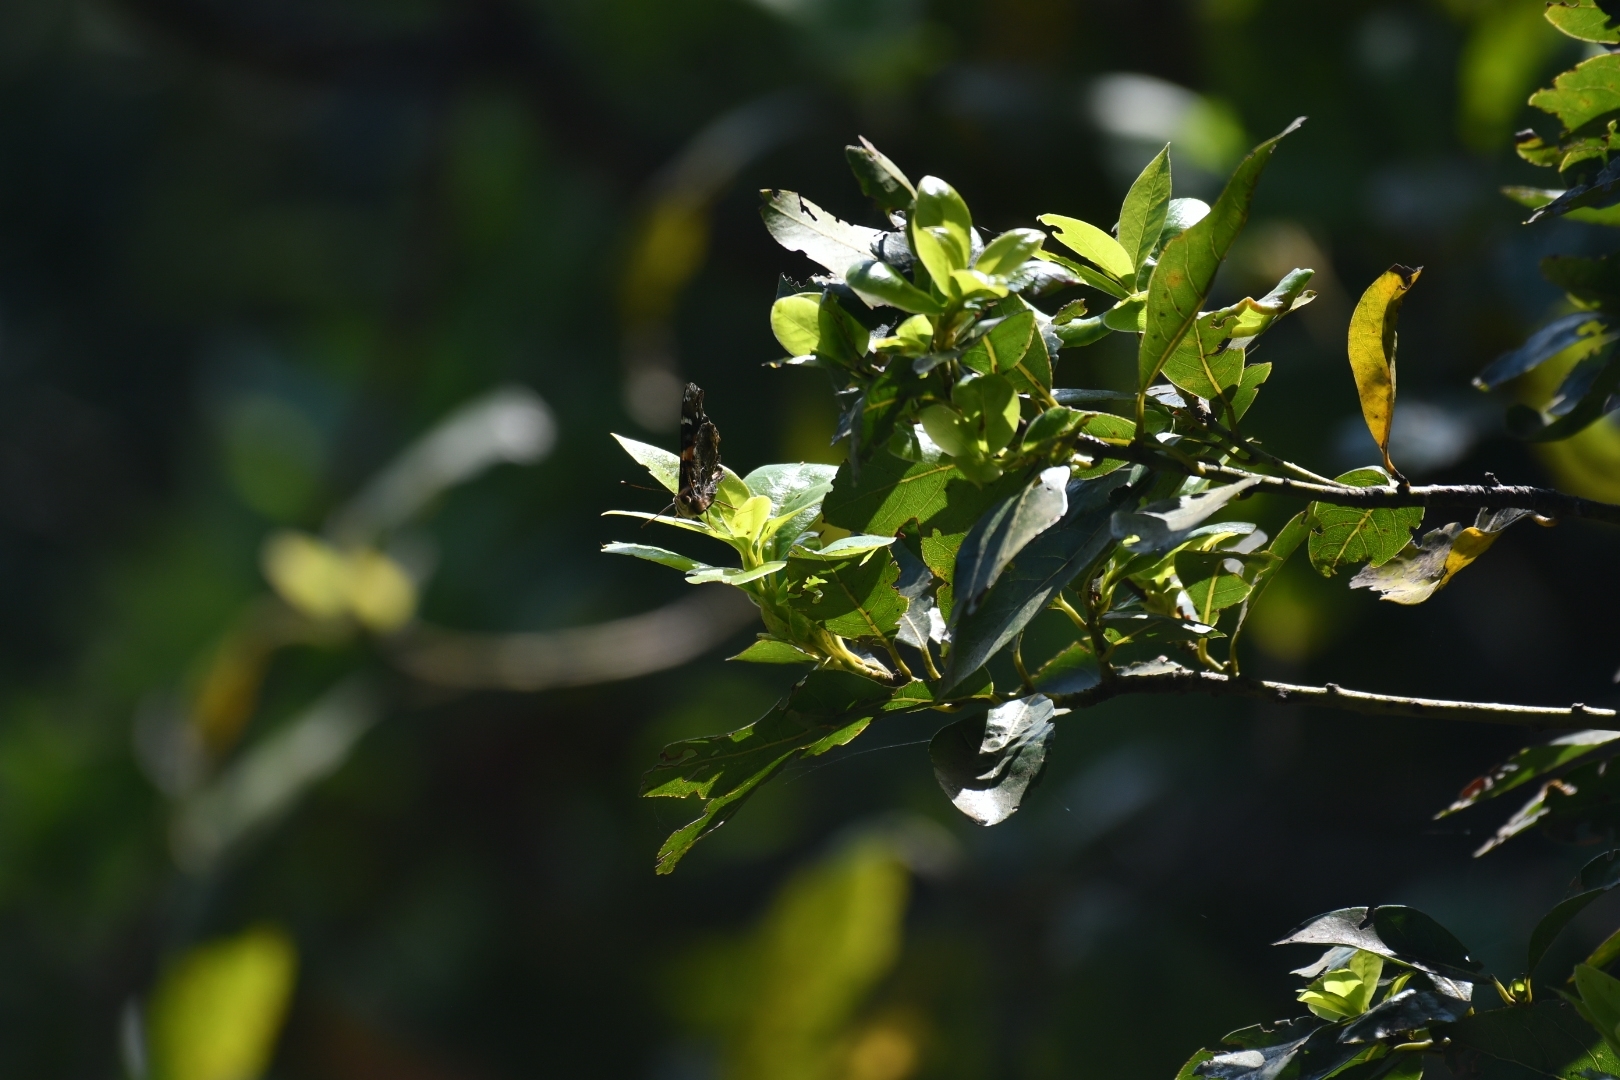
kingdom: Animalia
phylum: Arthropoda
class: Insecta
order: Lepidoptera
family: Nymphalidae
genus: Vanessa
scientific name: Vanessa atalanta
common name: Red admiral
